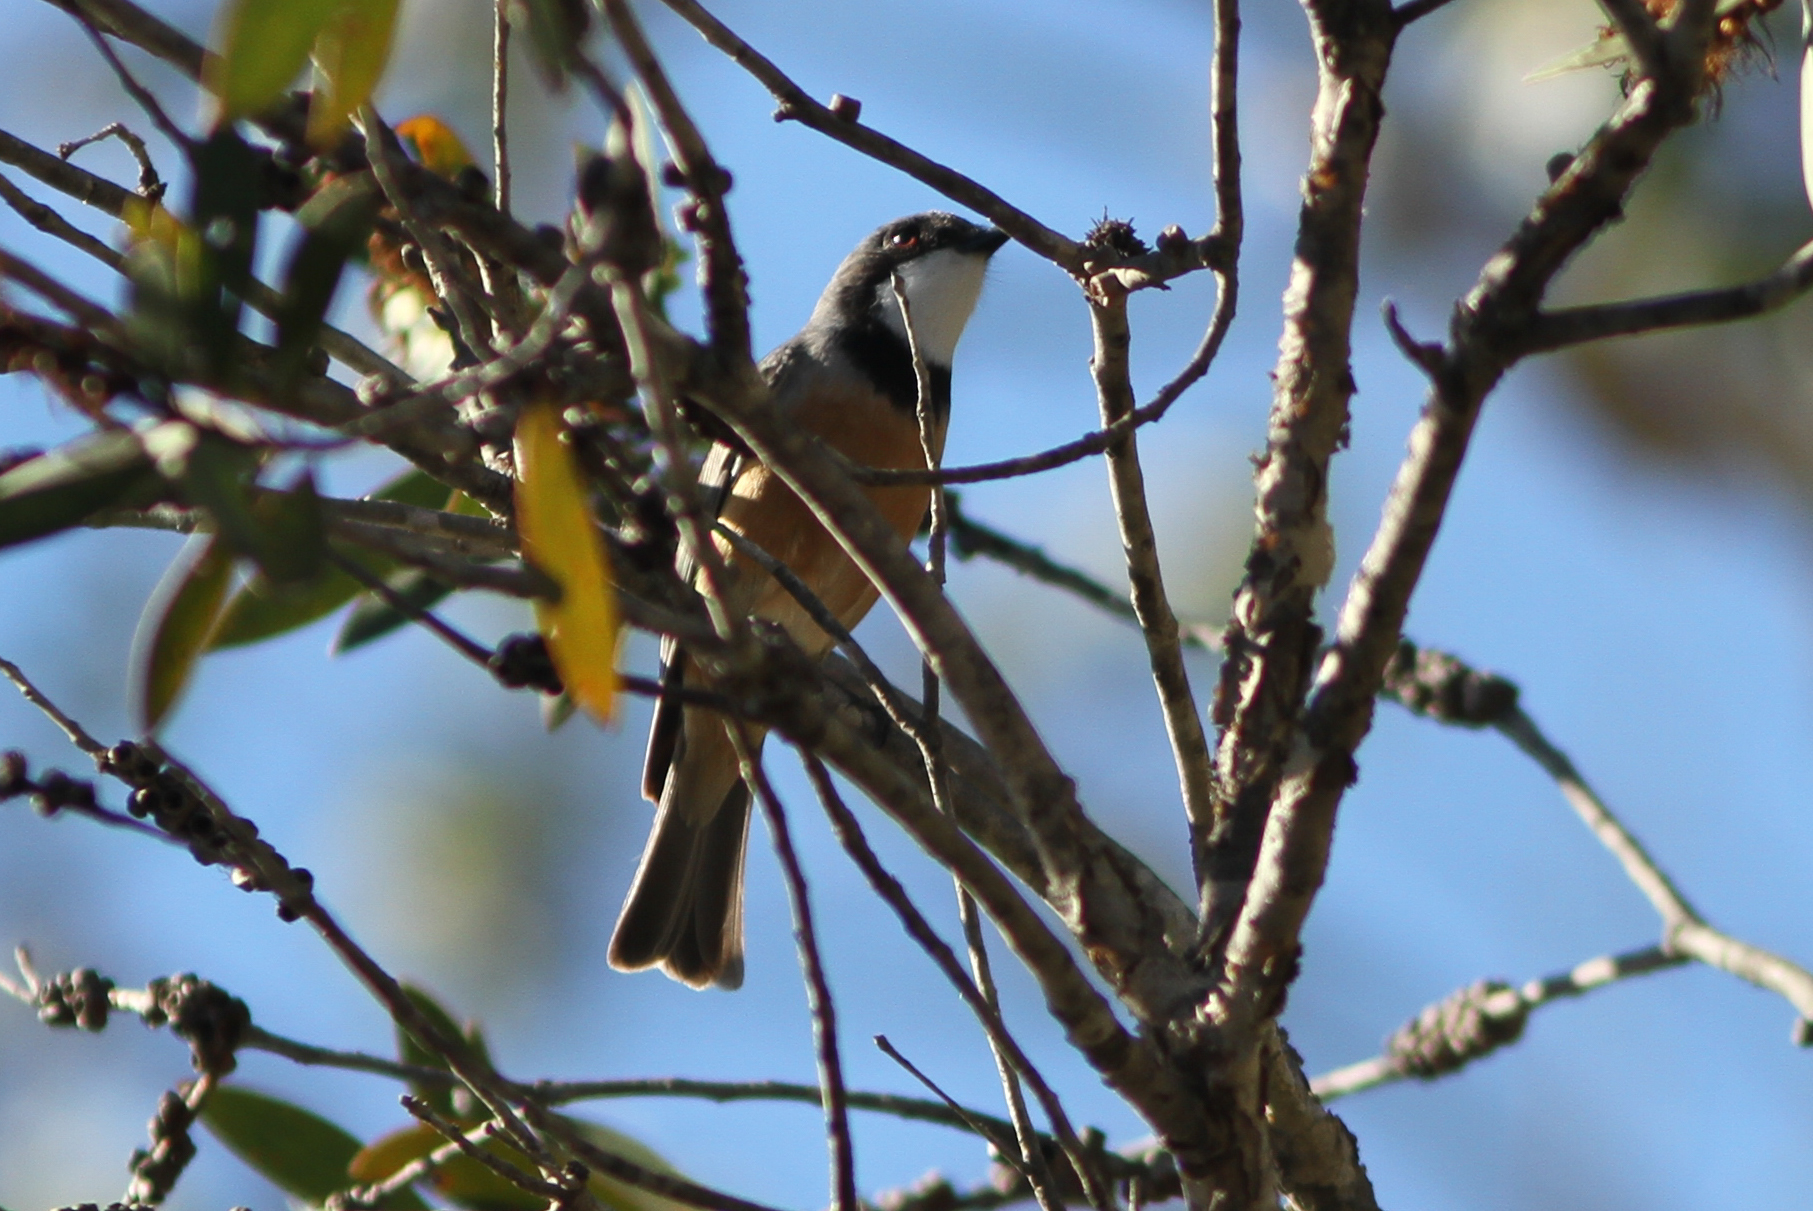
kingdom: Animalia
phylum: Chordata
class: Aves
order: Passeriformes
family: Pachycephalidae
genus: Pachycephala
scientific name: Pachycephala rufiventris
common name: Rufous whistler
